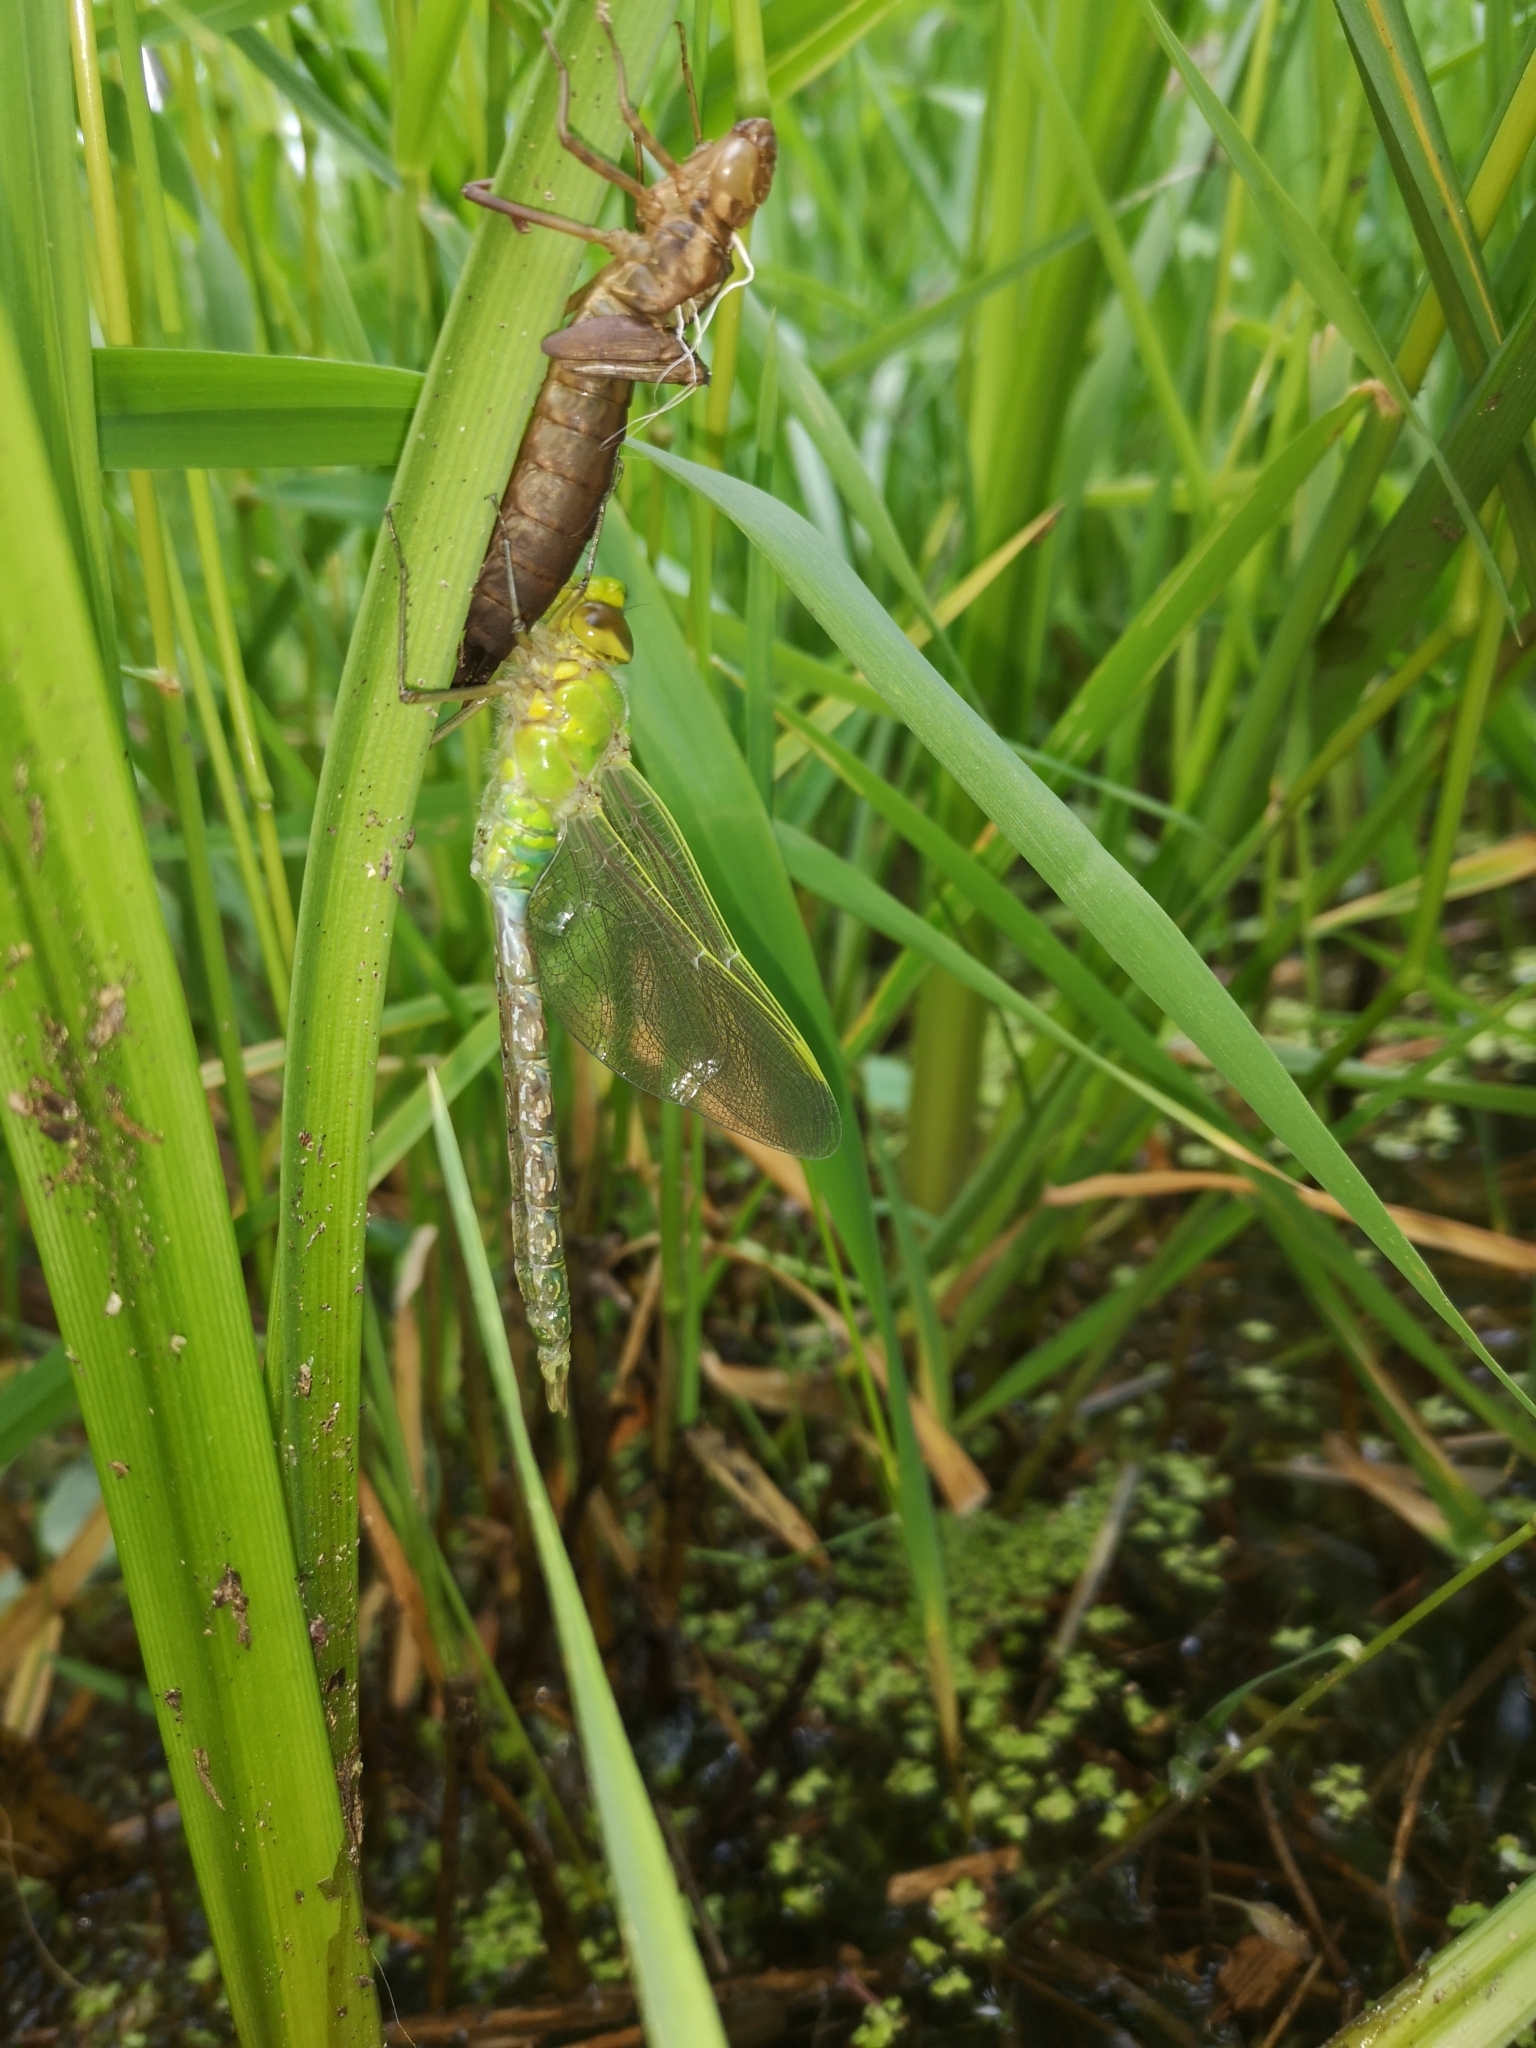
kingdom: Animalia
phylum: Arthropoda
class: Insecta
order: Odonata
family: Aeshnidae
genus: Anax
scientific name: Anax imperator
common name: Emperor dragonfly
